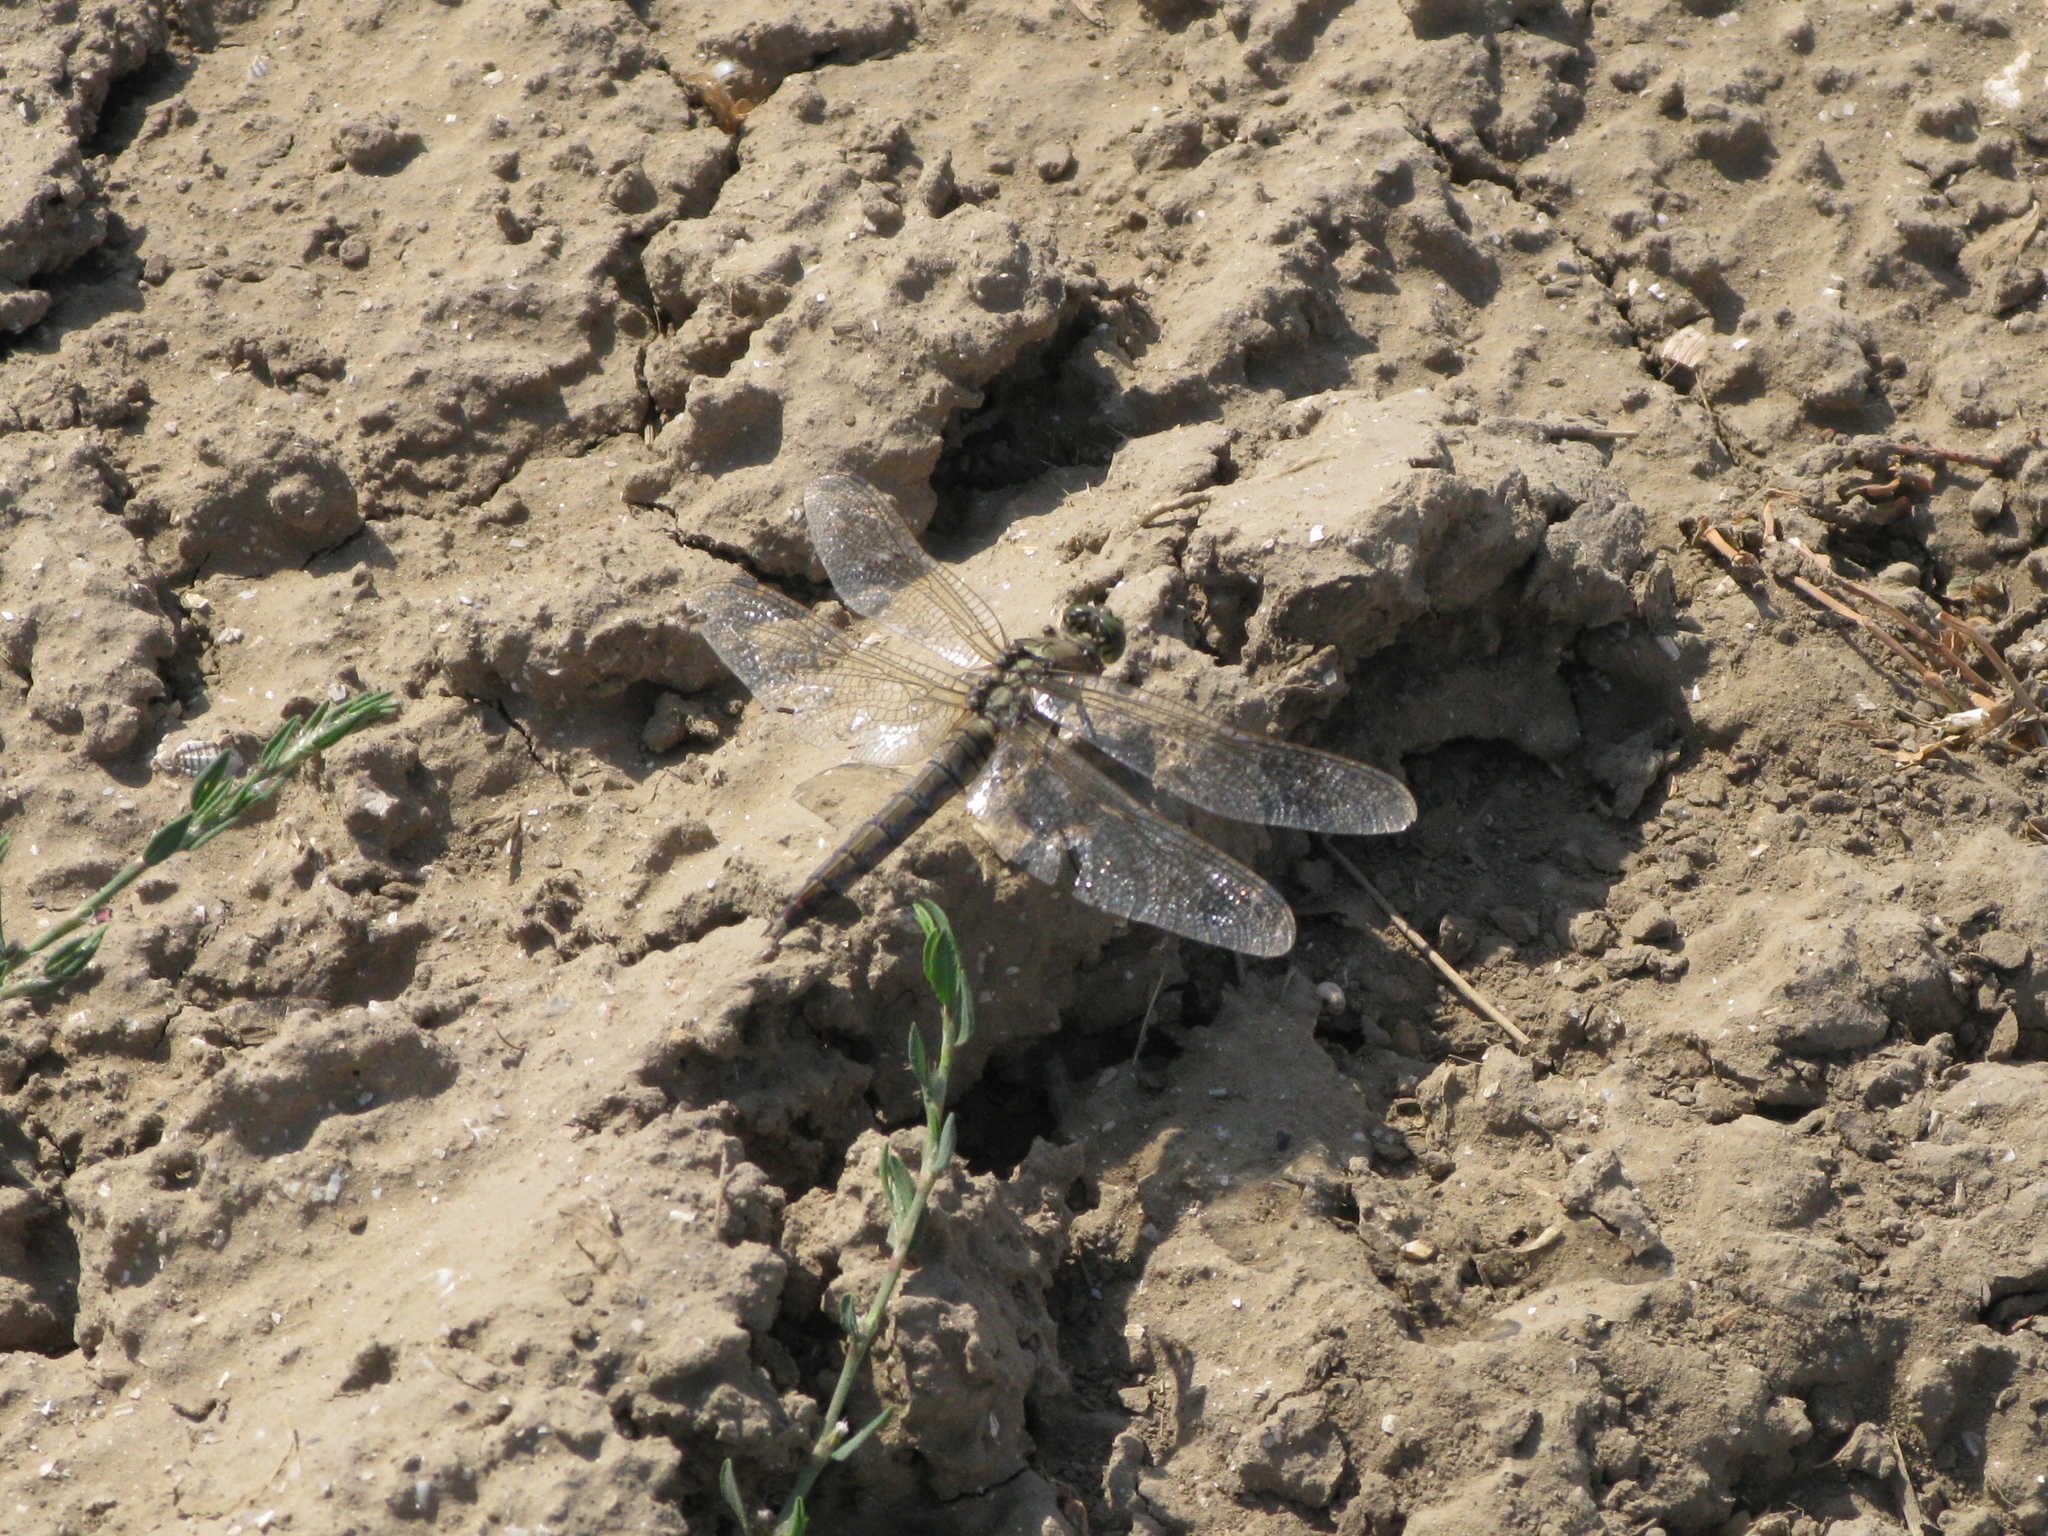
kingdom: Animalia
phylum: Arthropoda
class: Insecta
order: Odonata
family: Libellulidae
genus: Orthetrum
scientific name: Orthetrum cancellatum
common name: Black-tailed skimmer
